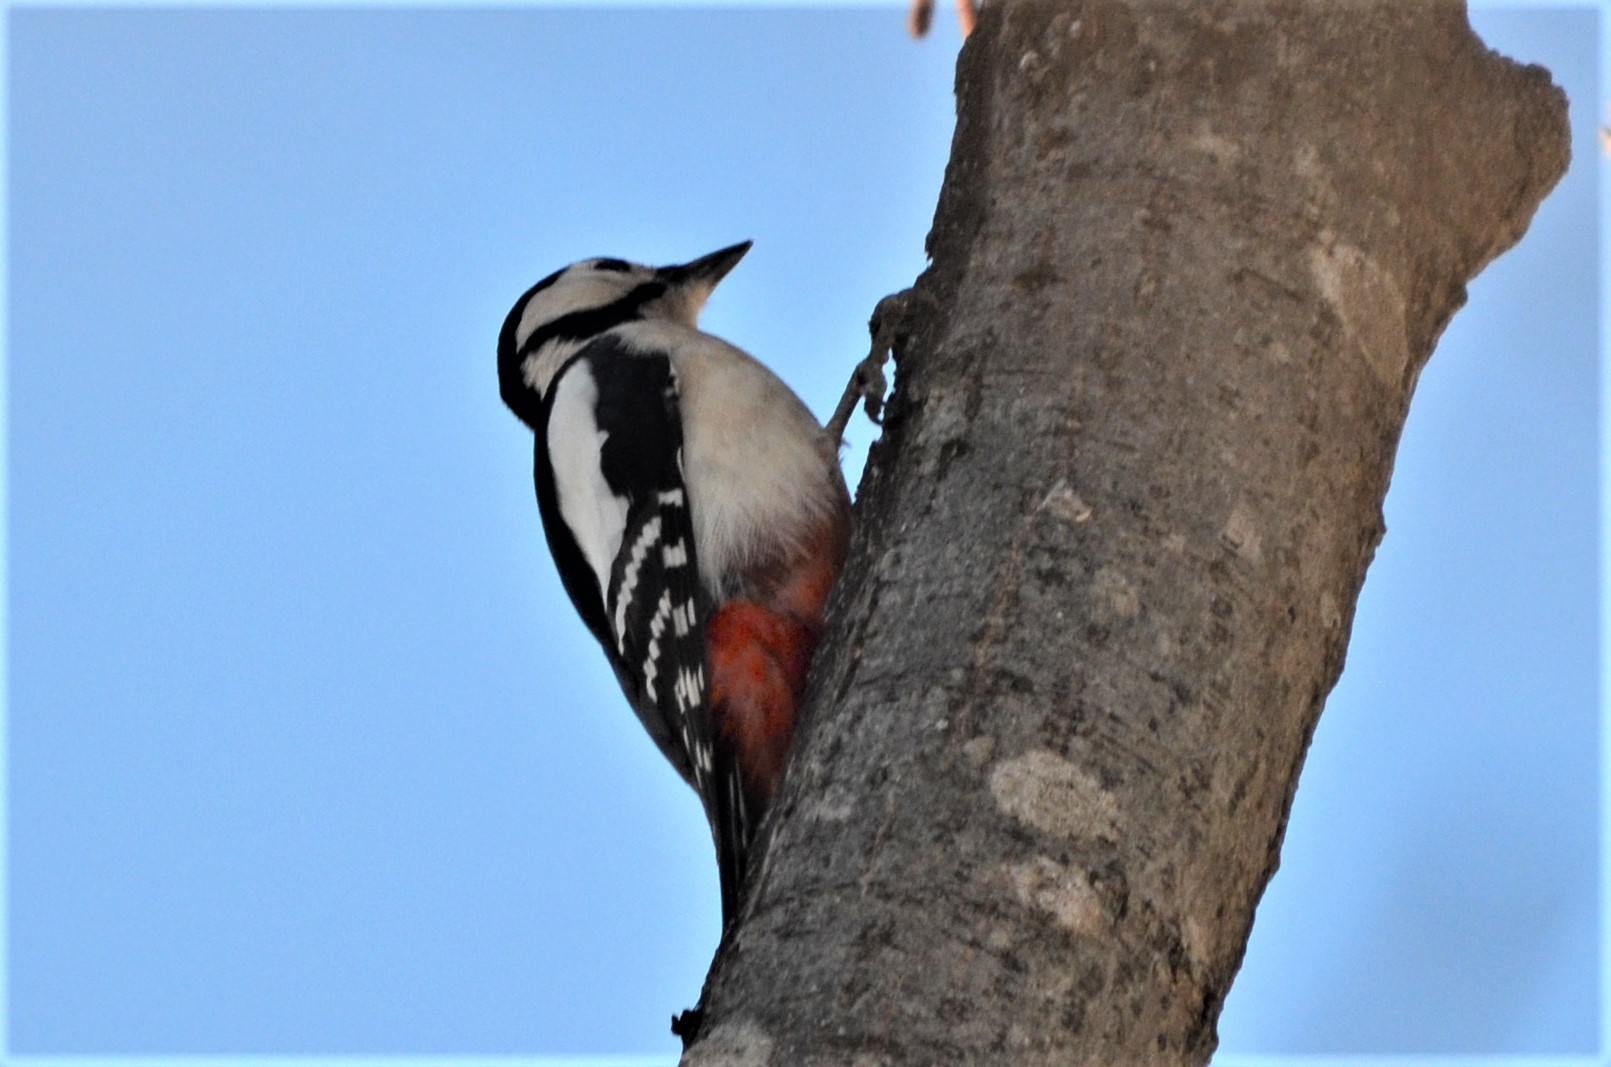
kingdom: Animalia
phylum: Chordata
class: Aves
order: Piciformes
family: Picidae
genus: Dendrocopos
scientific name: Dendrocopos major
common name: Great spotted woodpecker
